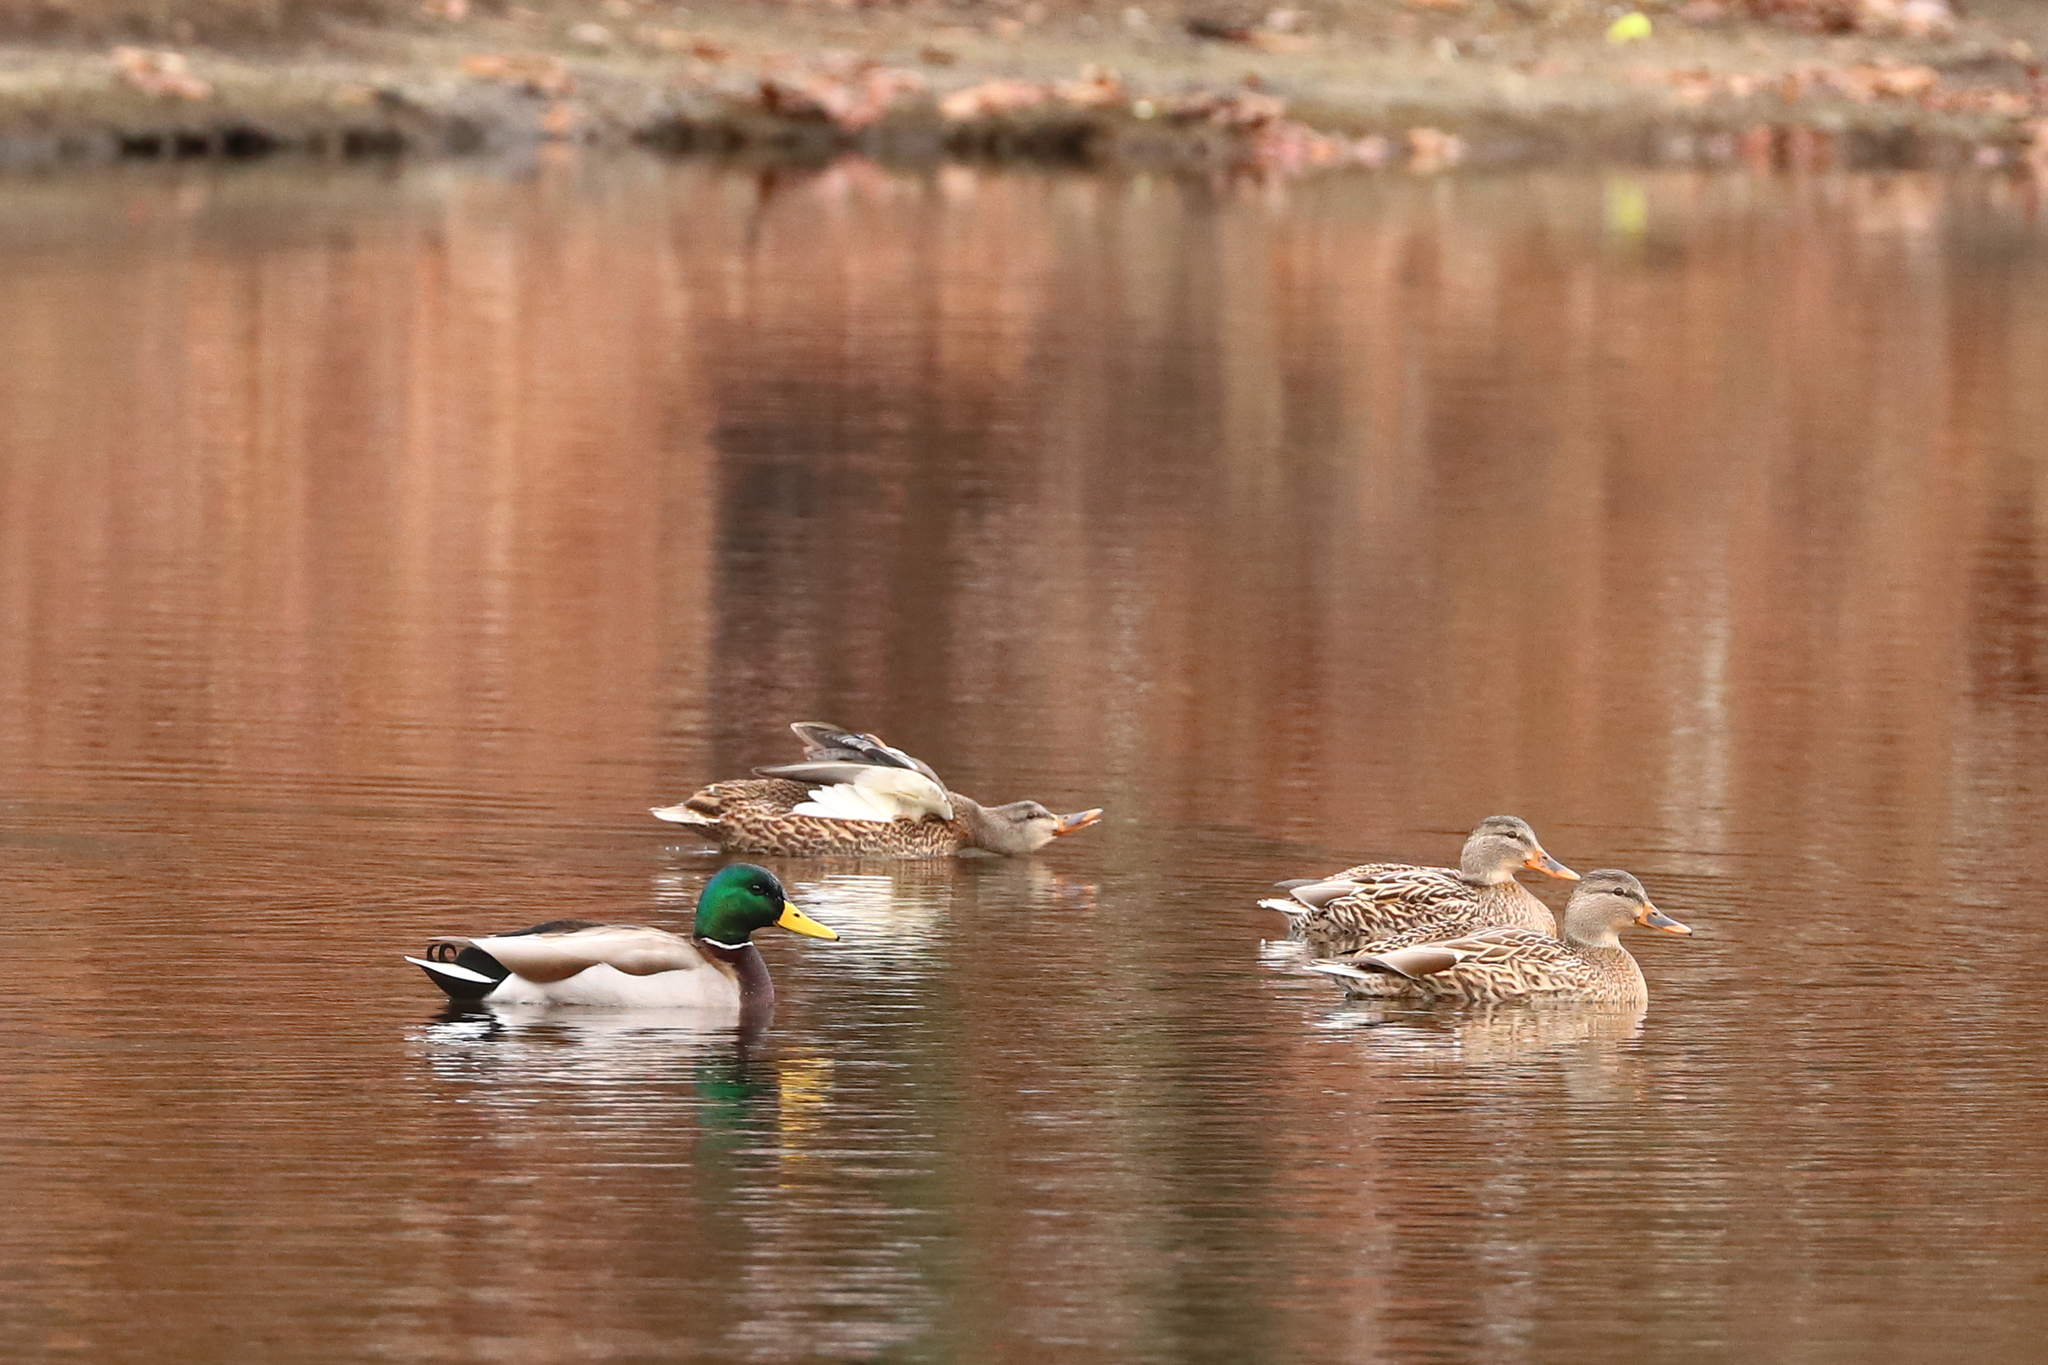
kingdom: Animalia
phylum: Chordata
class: Aves
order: Anseriformes
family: Anatidae
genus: Anas
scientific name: Anas platyrhynchos
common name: Mallard
